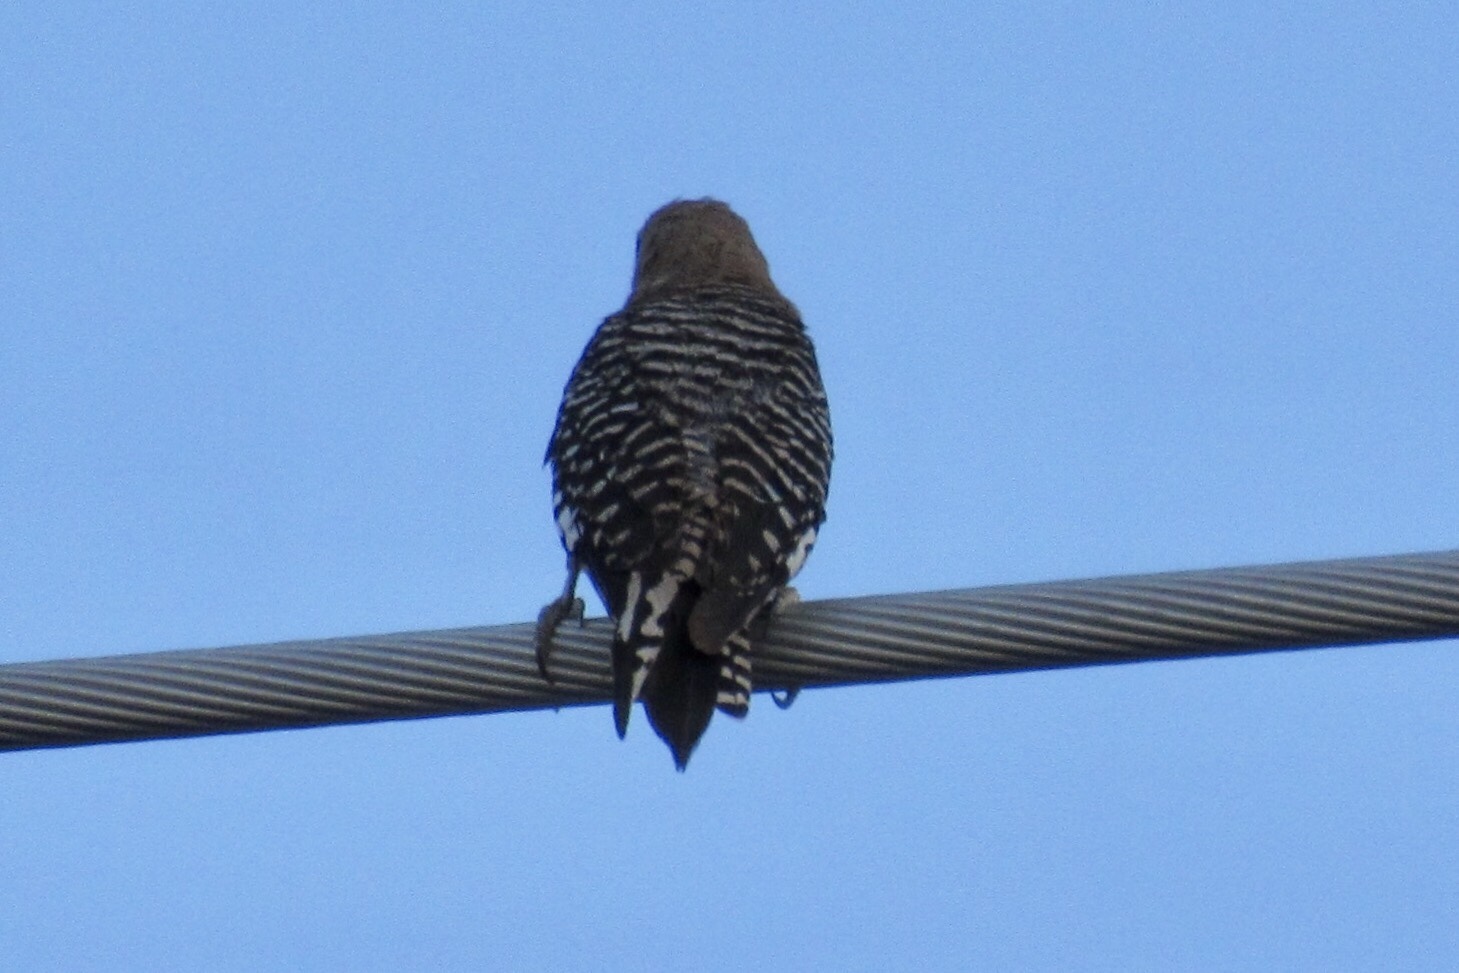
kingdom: Animalia
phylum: Chordata
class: Aves
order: Piciformes
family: Picidae
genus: Melanerpes
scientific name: Melanerpes uropygialis
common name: Gila woodpecker
